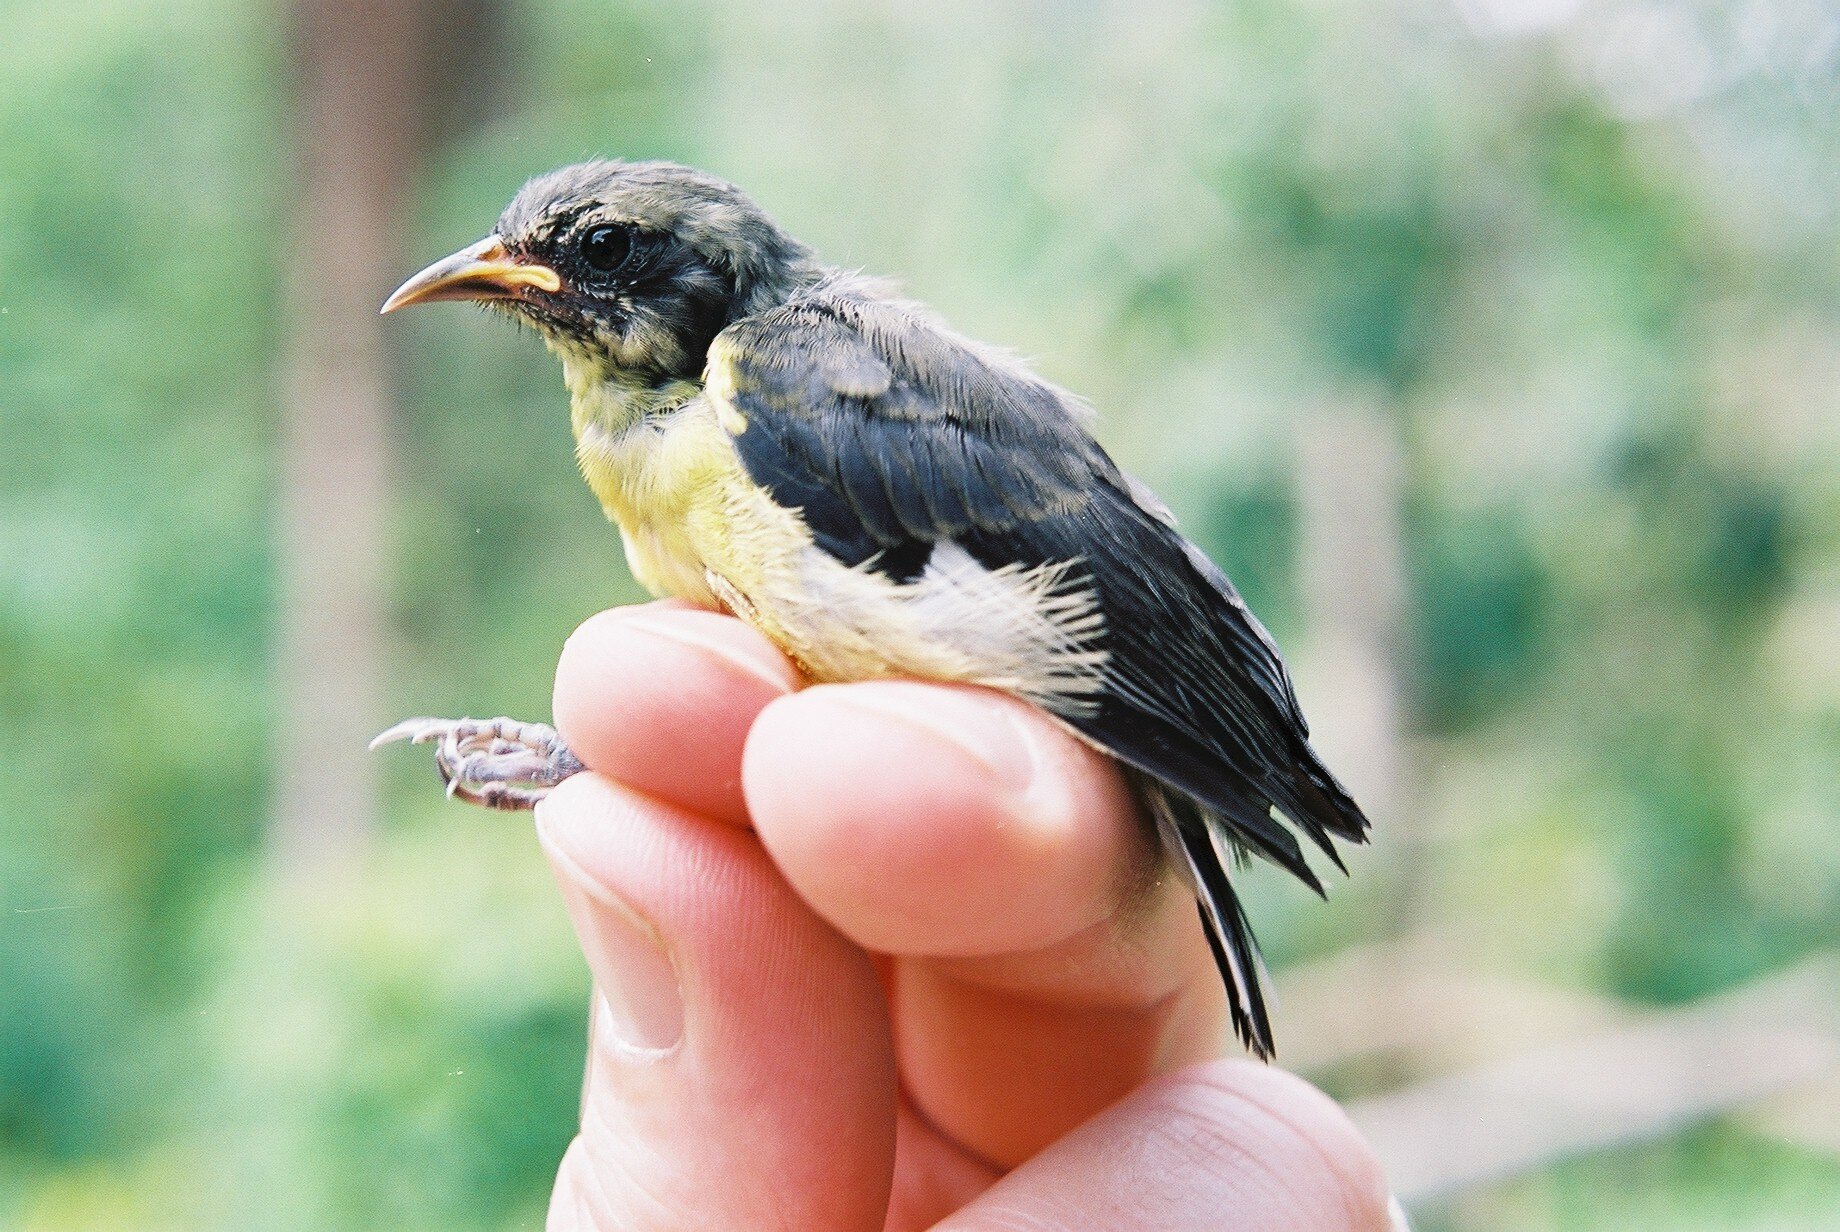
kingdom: Animalia
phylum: Chordata
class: Aves
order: Passeriformes
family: Thraupidae
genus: Coereba
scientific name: Coereba flaveola
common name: Bananaquit
